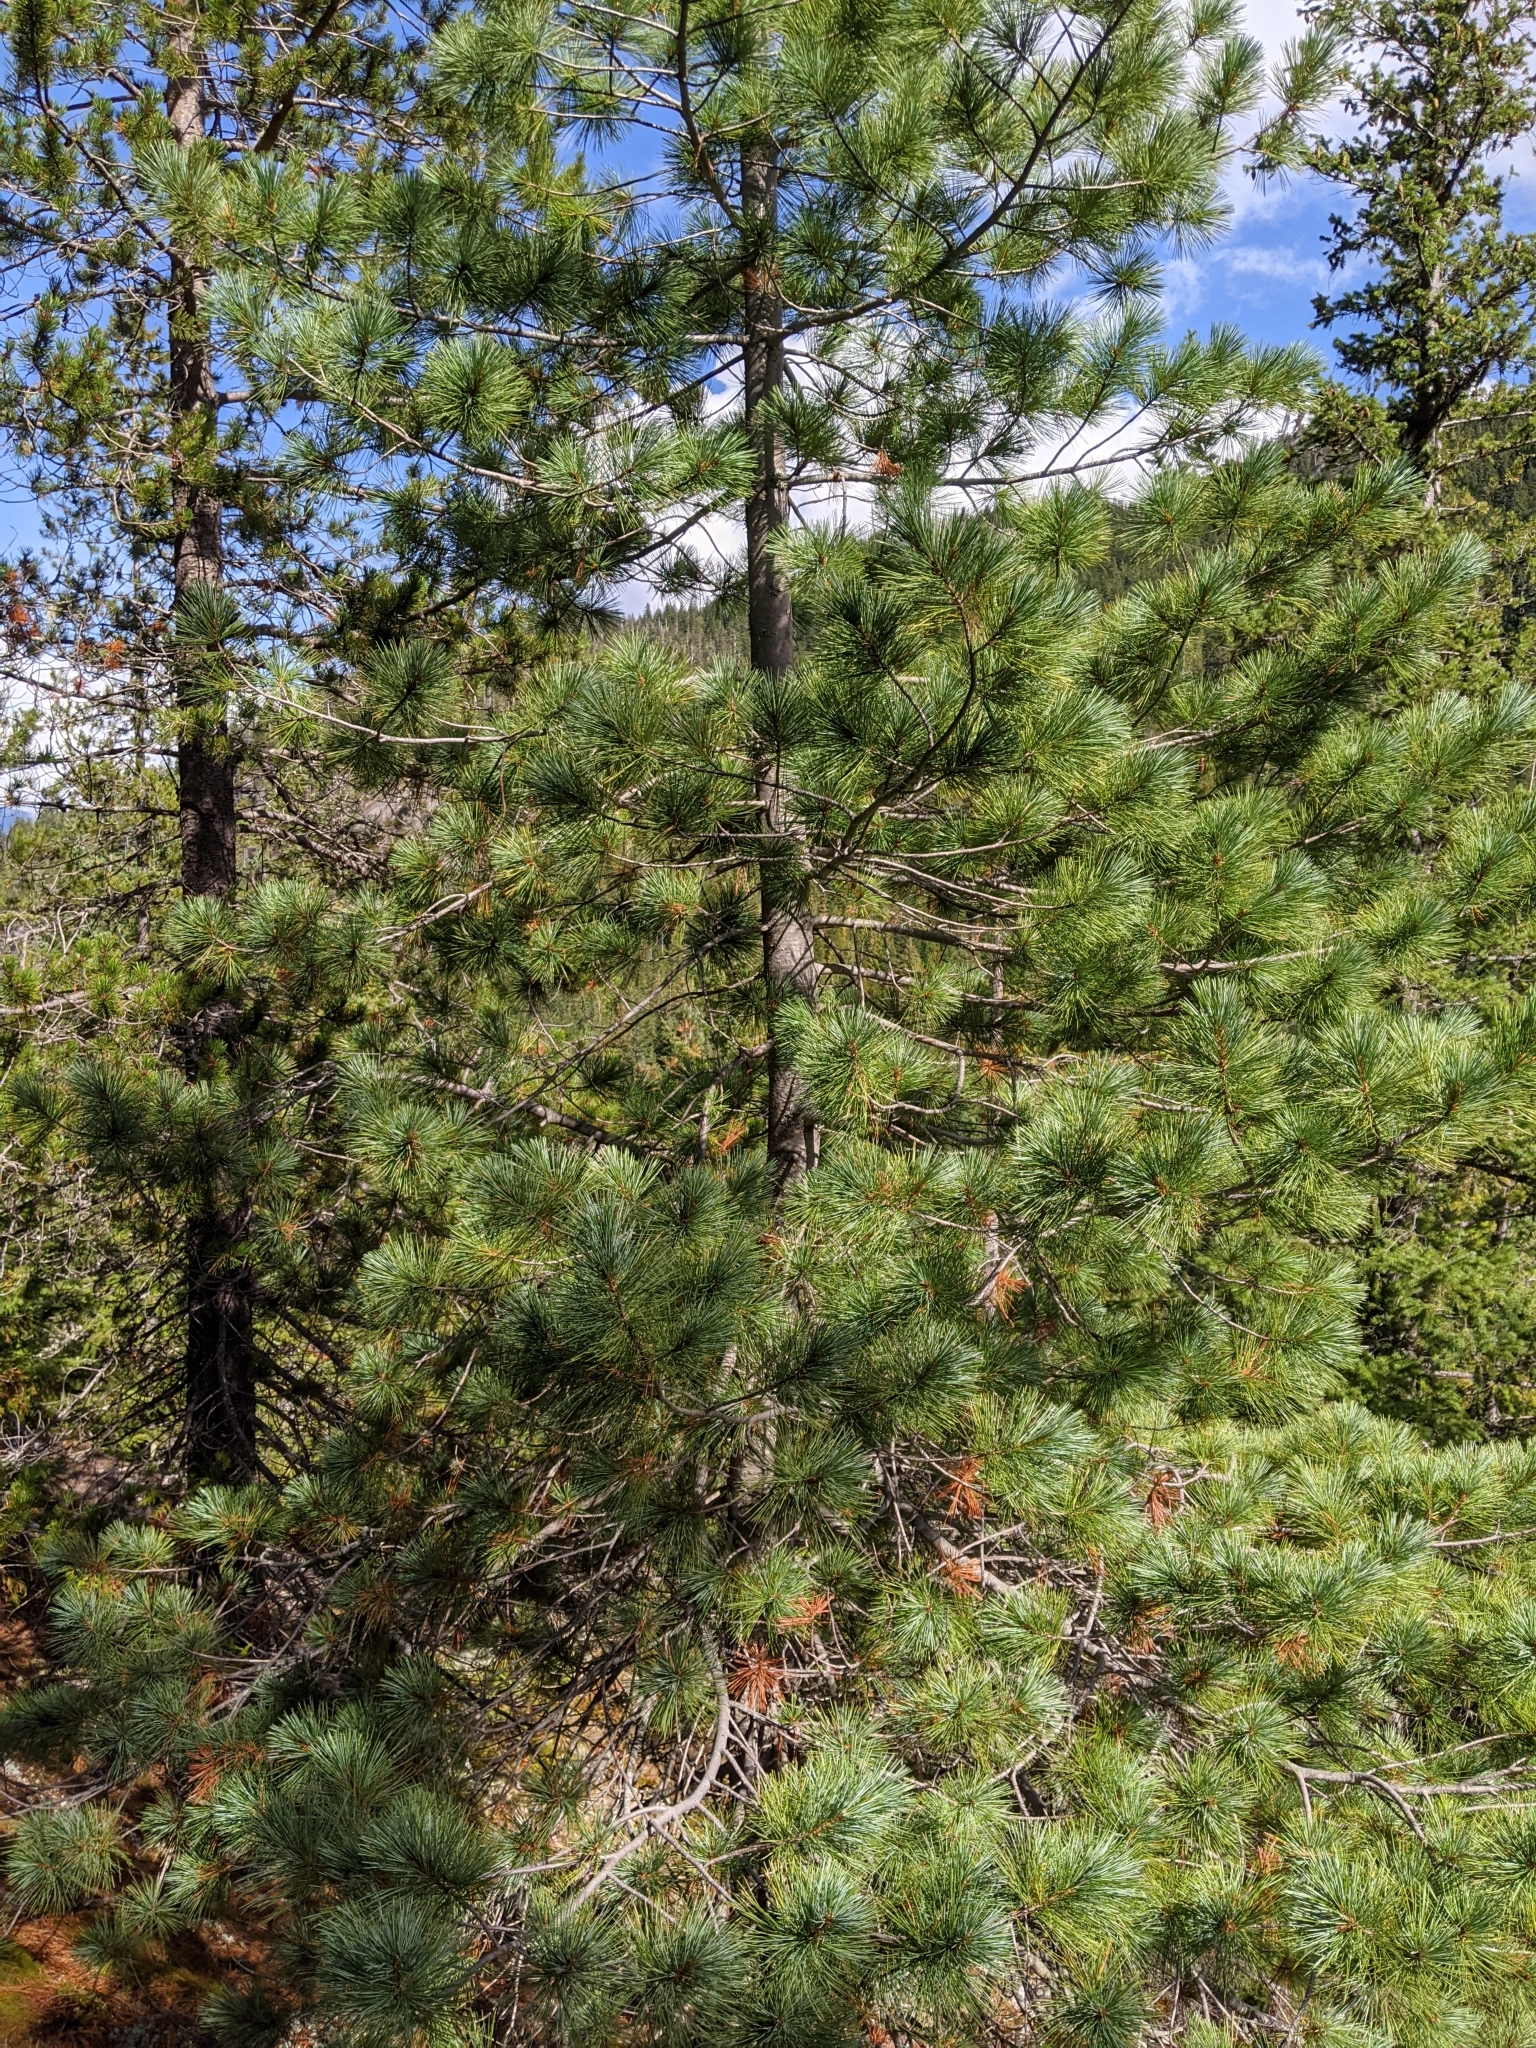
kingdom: Plantae
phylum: Tracheophyta
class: Pinopsida
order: Pinales
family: Pinaceae
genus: Pinus
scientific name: Pinus monticola
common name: Western white pine
